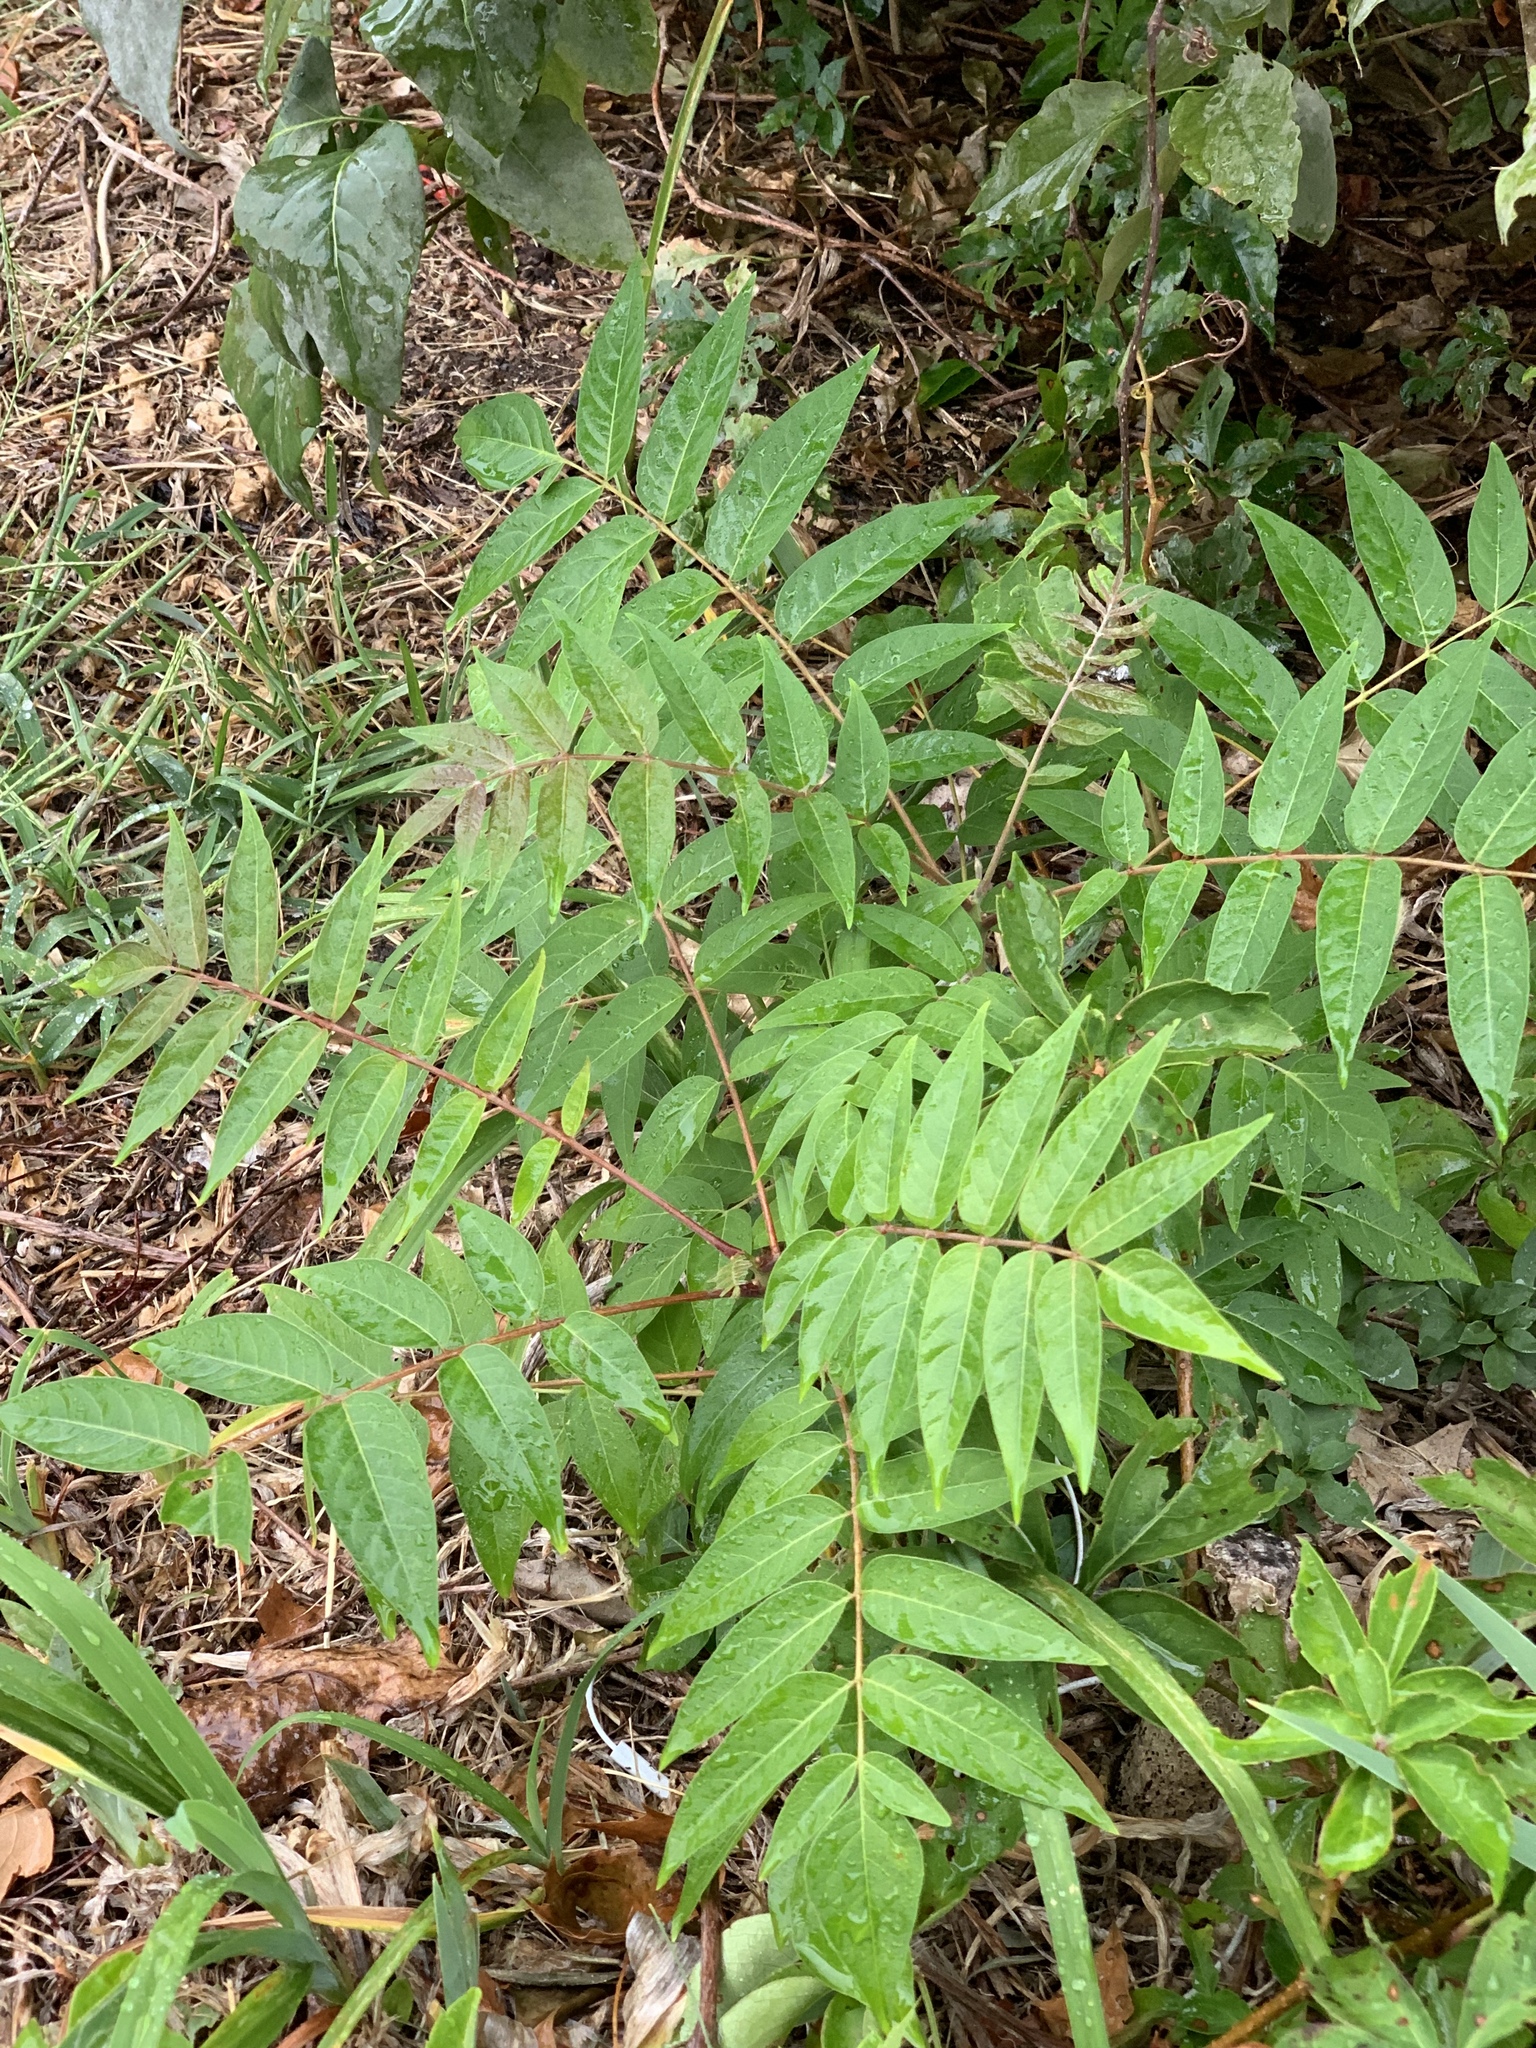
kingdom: Plantae
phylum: Tracheophyta
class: Magnoliopsida
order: Sapindales
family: Simaroubaceae
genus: Ailanthus
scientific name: Ailanthus altissima
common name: Tree-of-heaven
